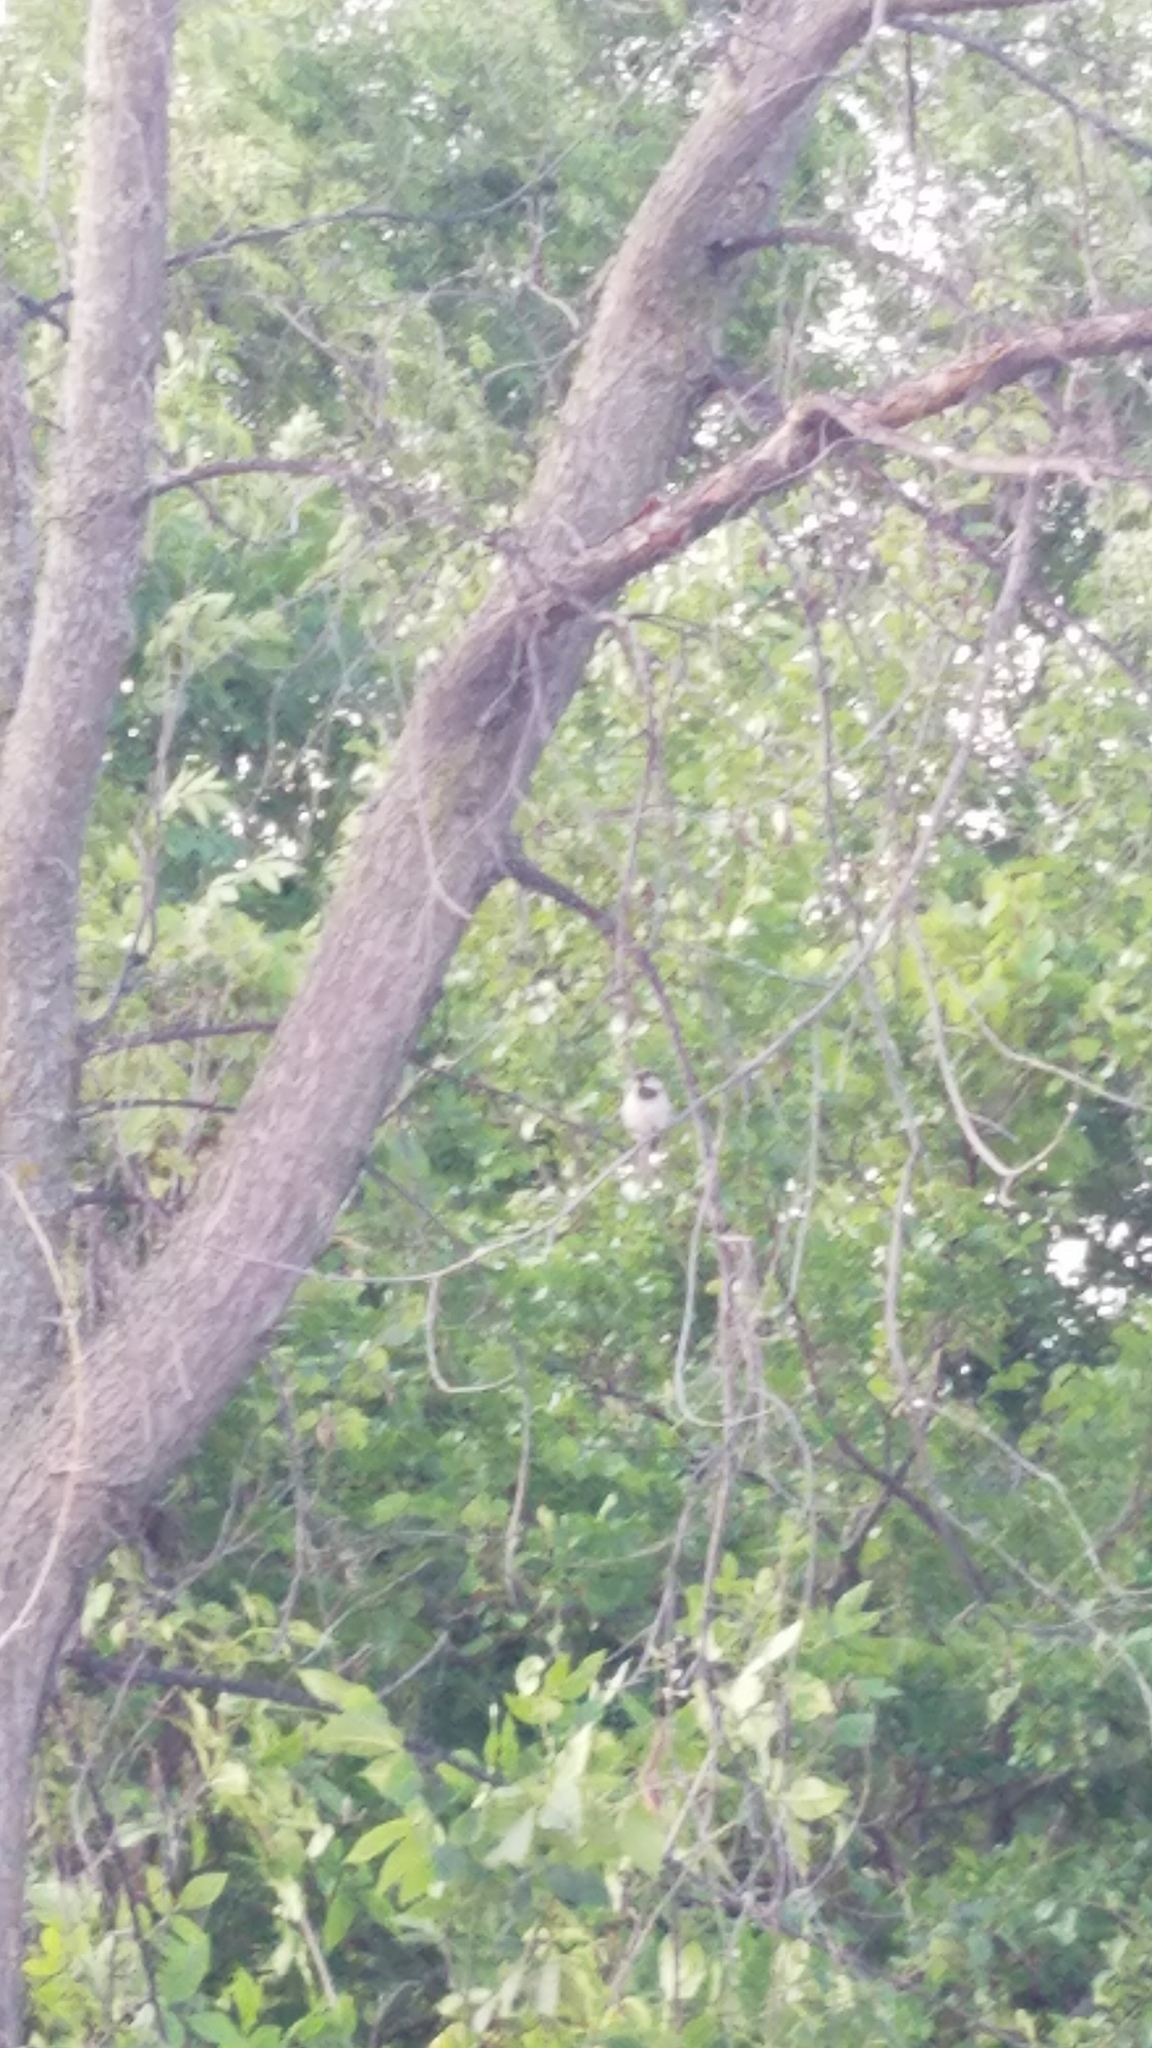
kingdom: Animalia
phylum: Chordata
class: Aves
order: Passeriformes
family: Passeridae
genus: Passer
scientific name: Passer domesticus
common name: House sparrow
